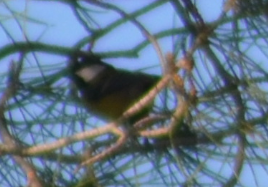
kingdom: Animalia
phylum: Chordata
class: Aves
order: Passeriformes
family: Paridae
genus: Parus
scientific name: Parus major
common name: Great tit
